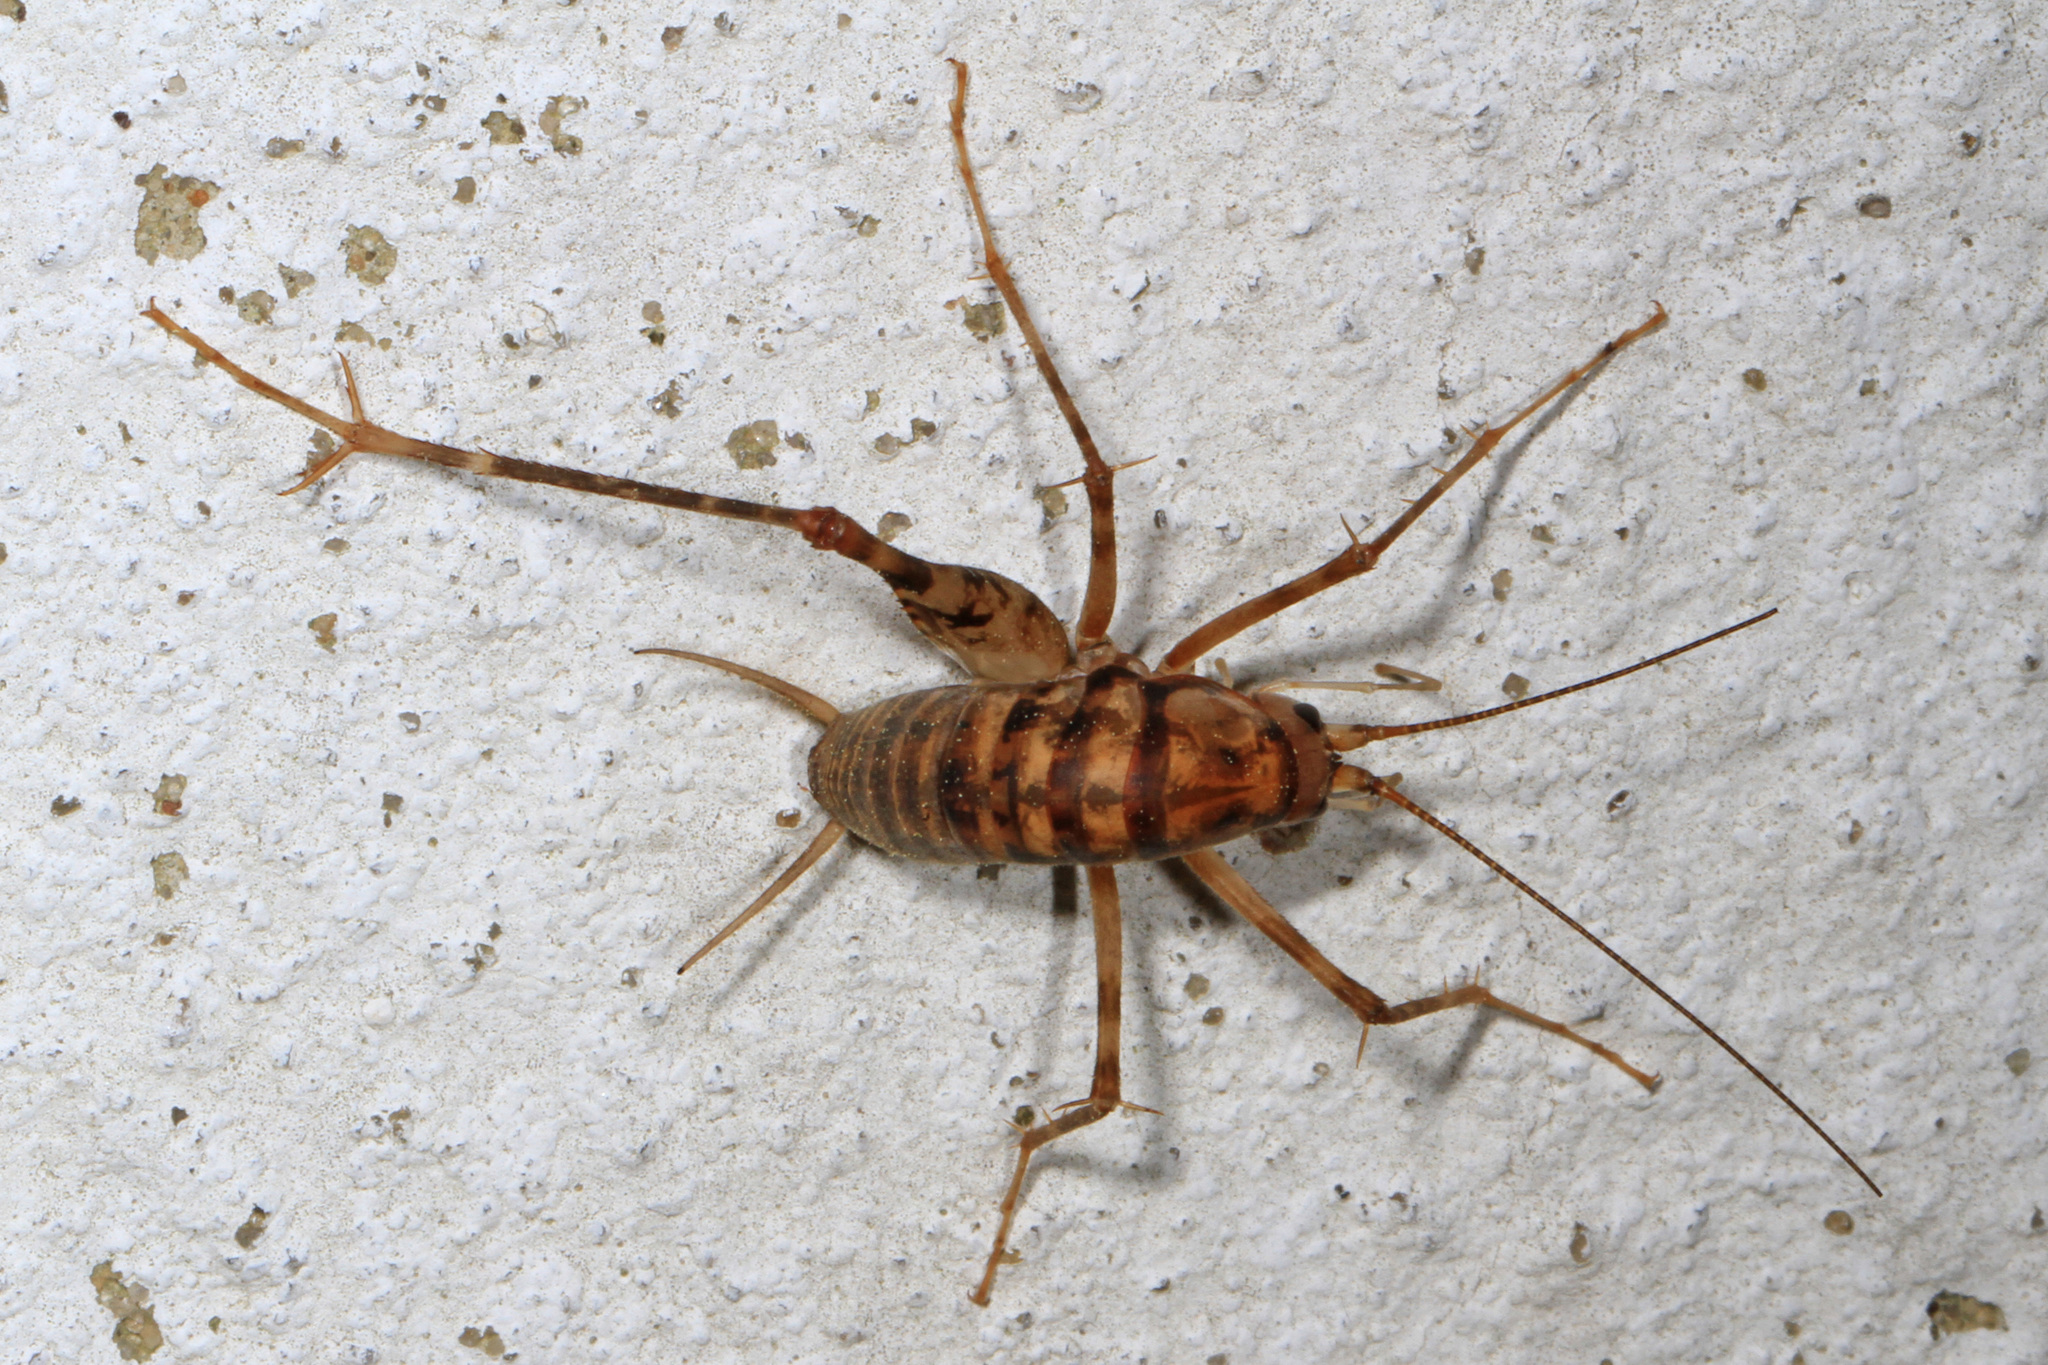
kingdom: Animalia
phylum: Arthropoda
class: Insecta
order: Orthoptera
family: Rhaphidophoridae
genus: Tachycines
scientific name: Tachycines asynamorus
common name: Greenhouse camel cricket
